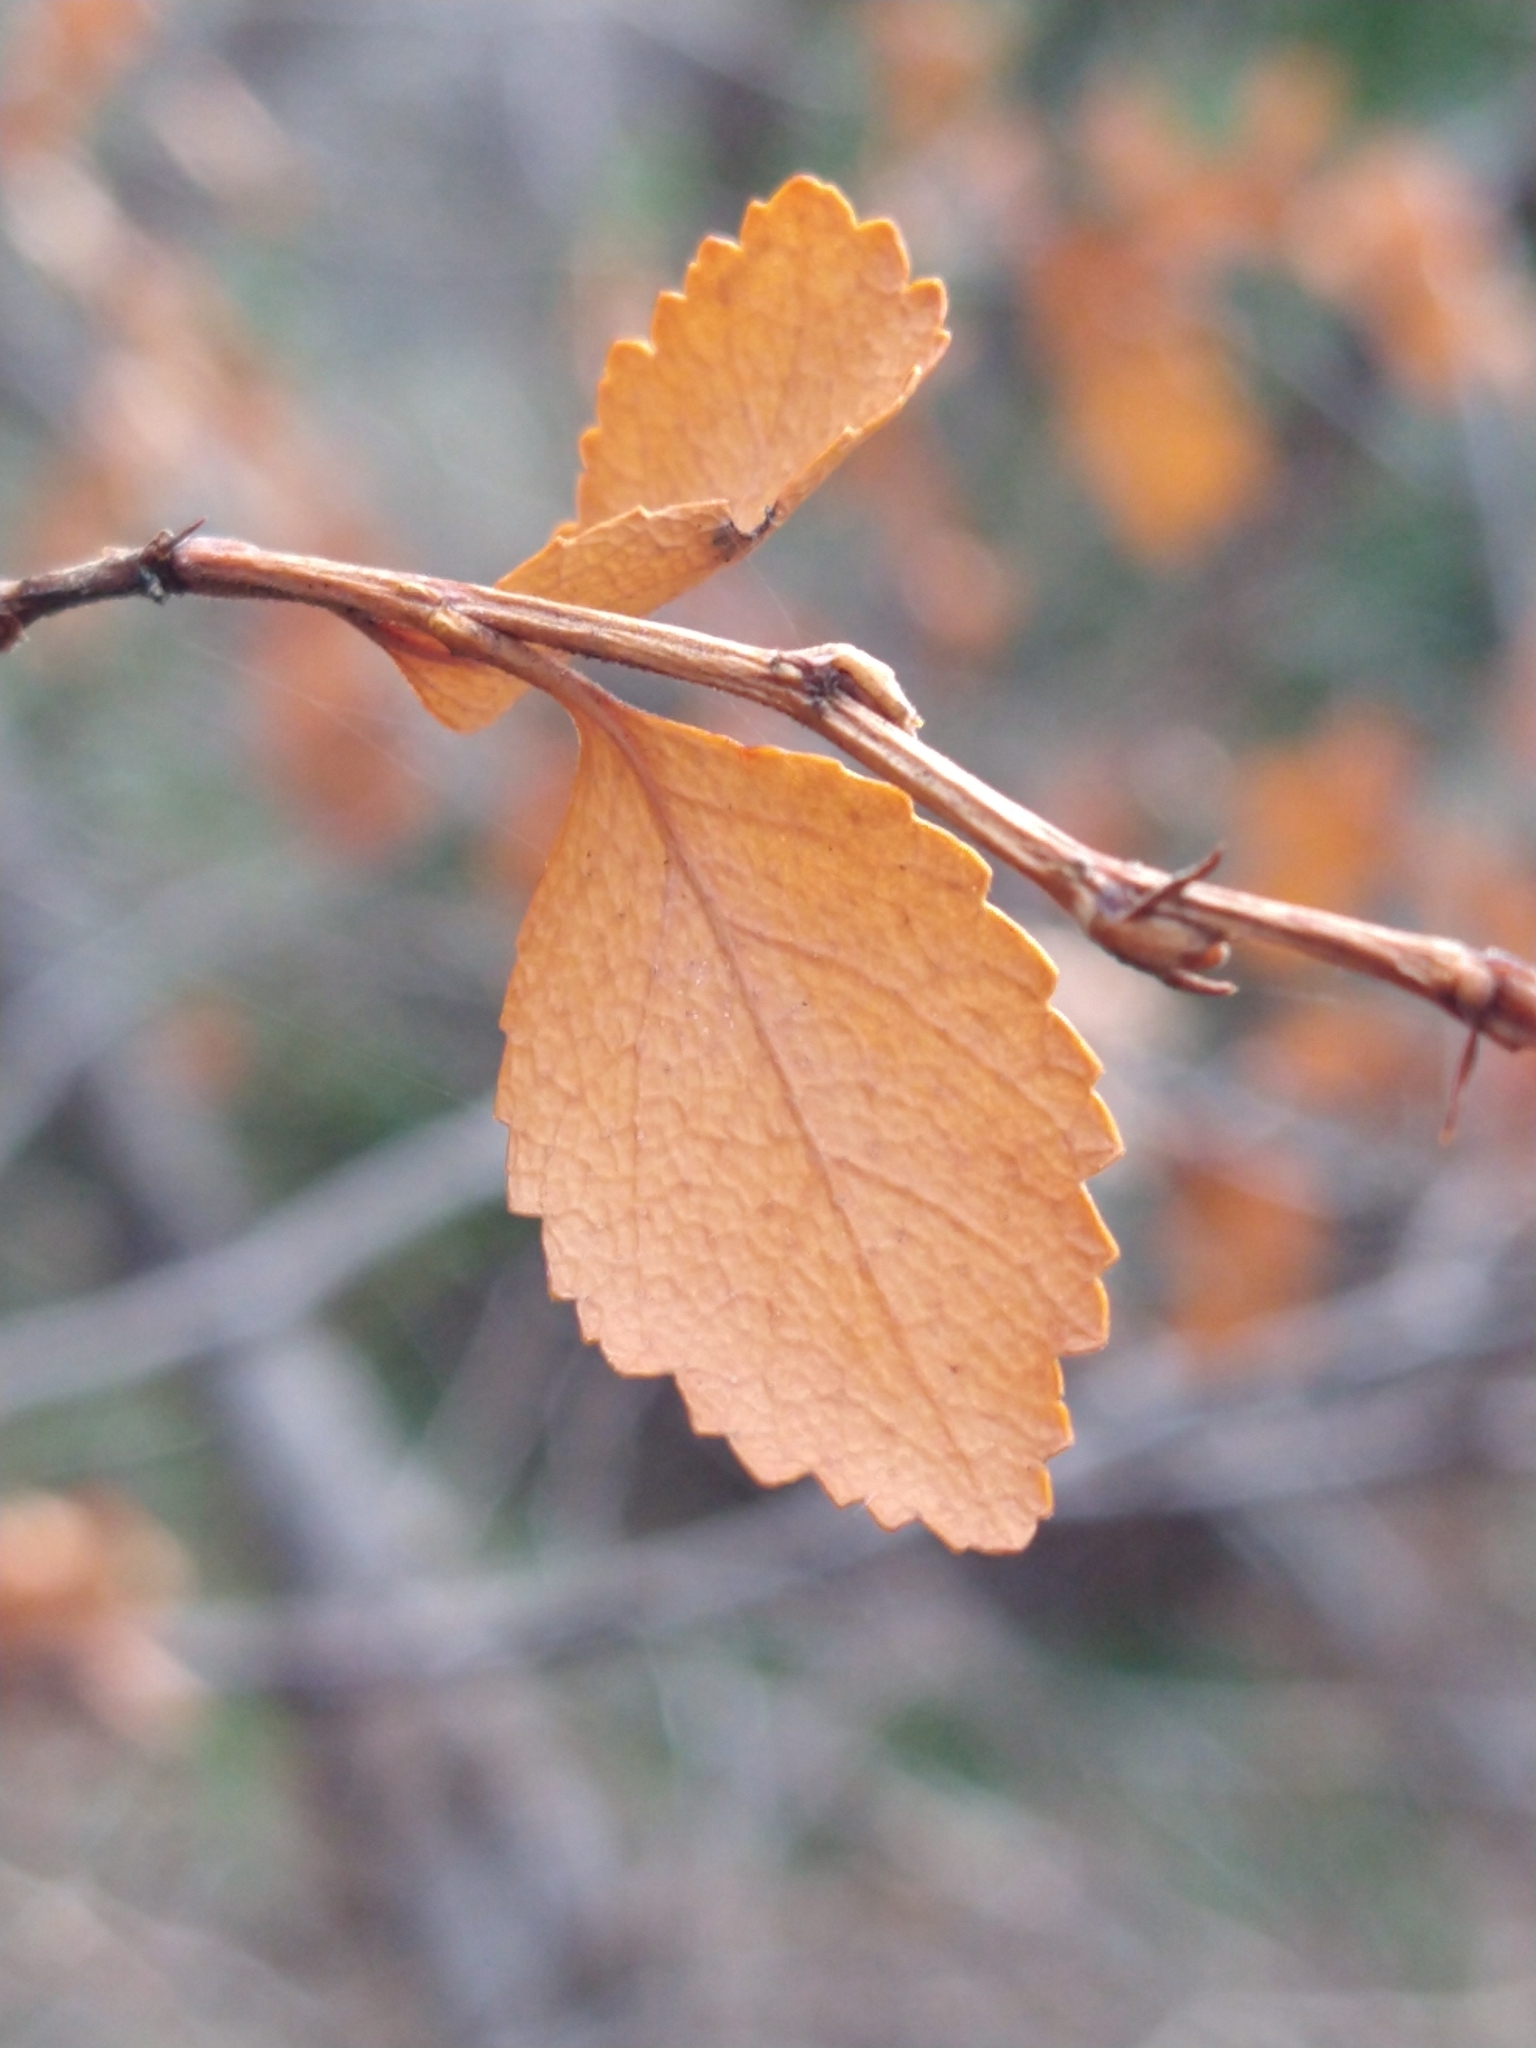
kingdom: Plantae
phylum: Tracheophyta
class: Magnoliopsida
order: Fagales
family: Nothofagaceae
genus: Nothofagus
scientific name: Nothofagus betuloides
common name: Magellan's beech
